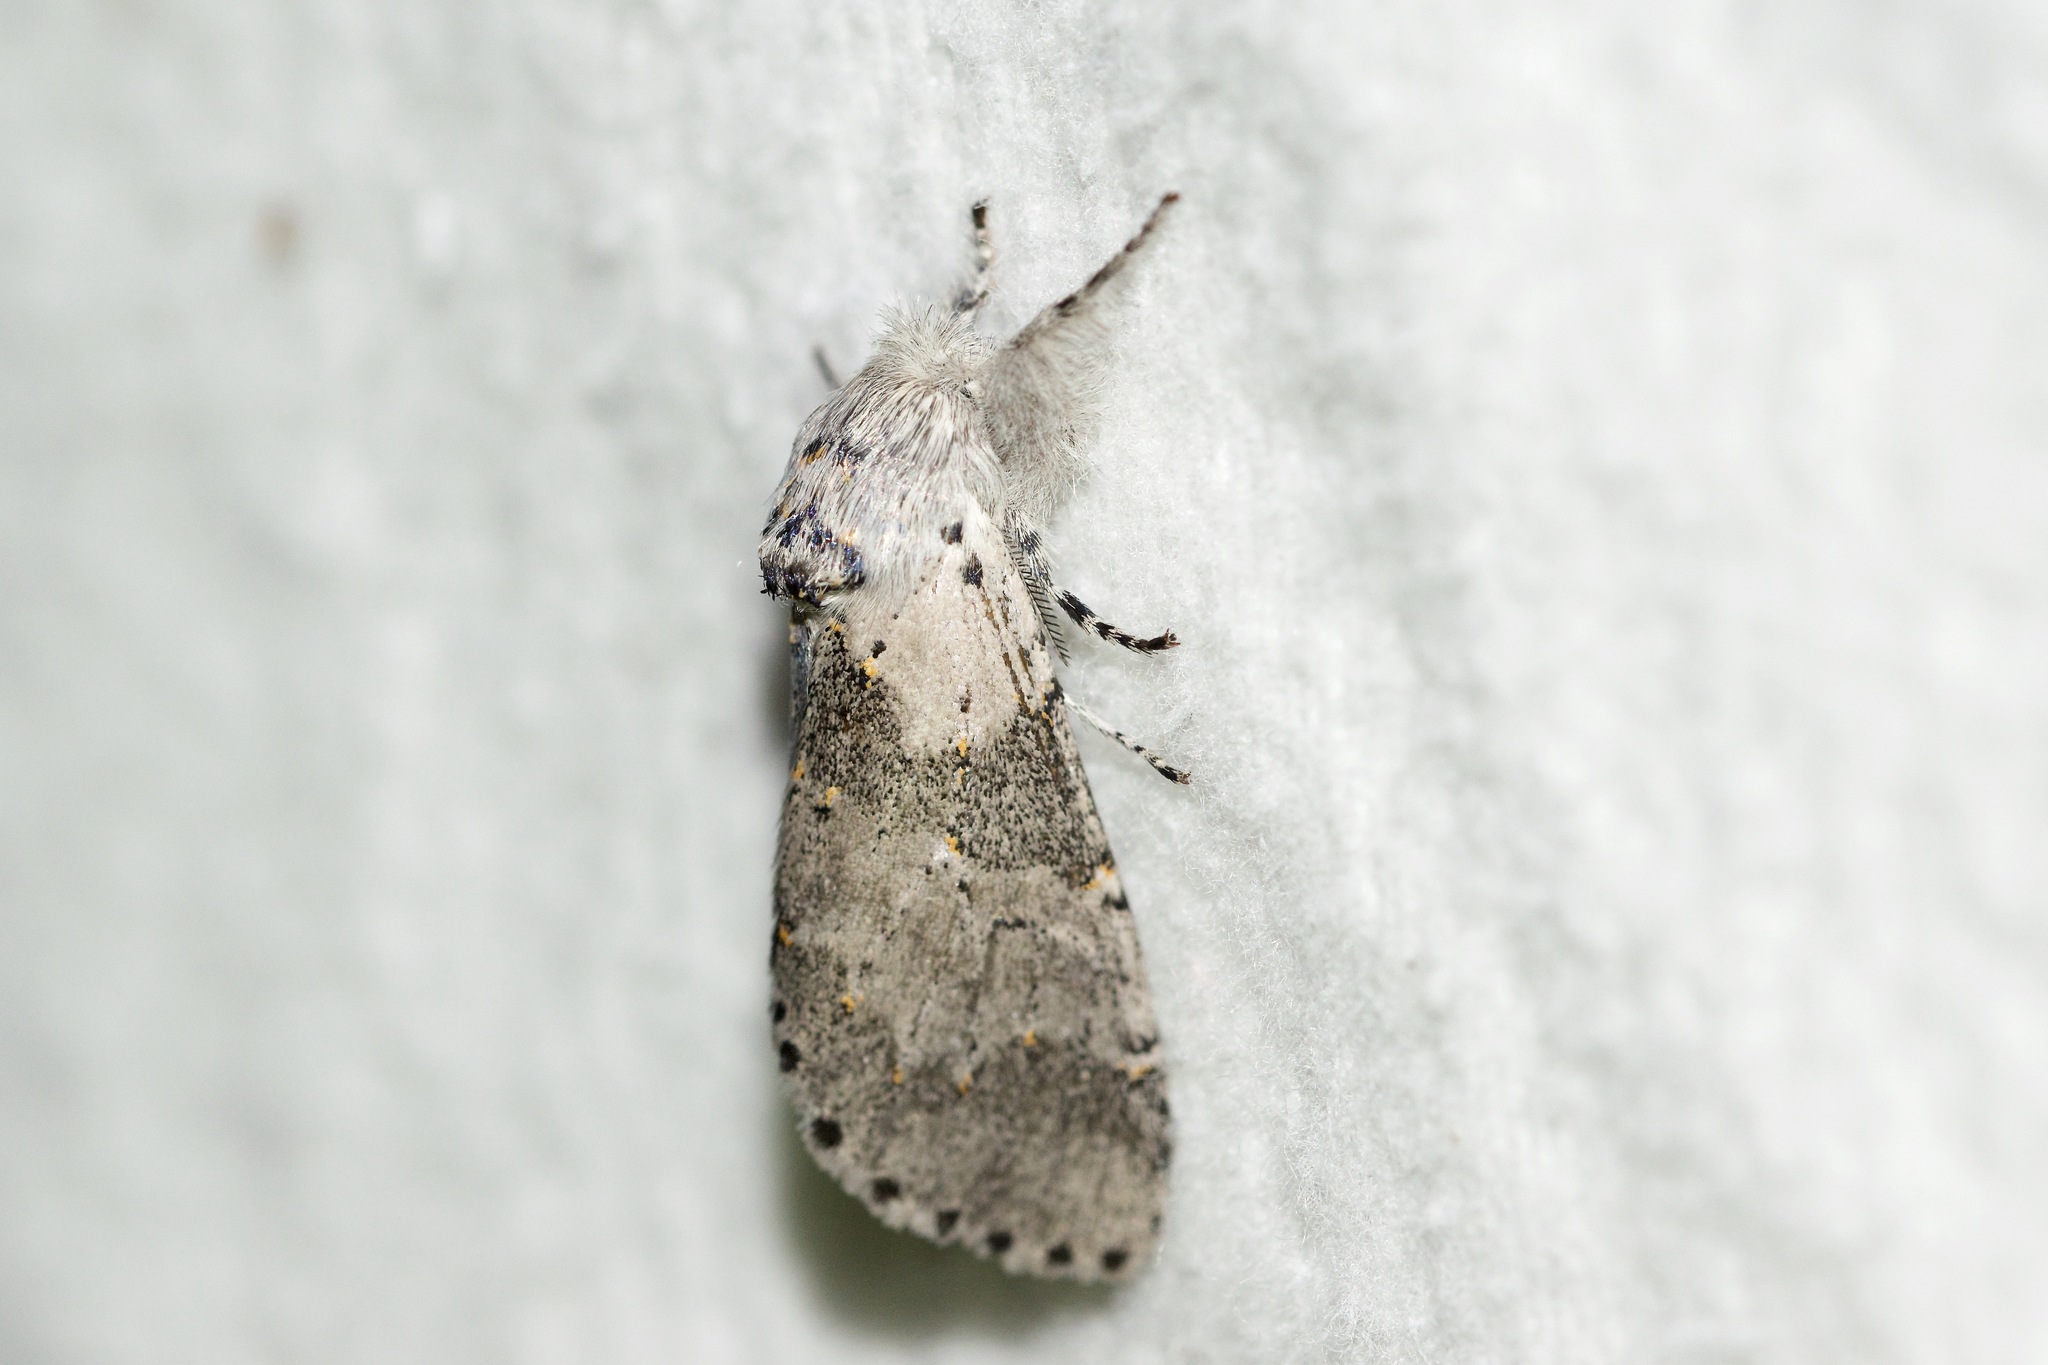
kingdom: Animalia
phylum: Arthropoda
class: Insecta
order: Lepidoptera
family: Notodontidae
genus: Furcula
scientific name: Furcula cinerea
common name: Gray furcula
